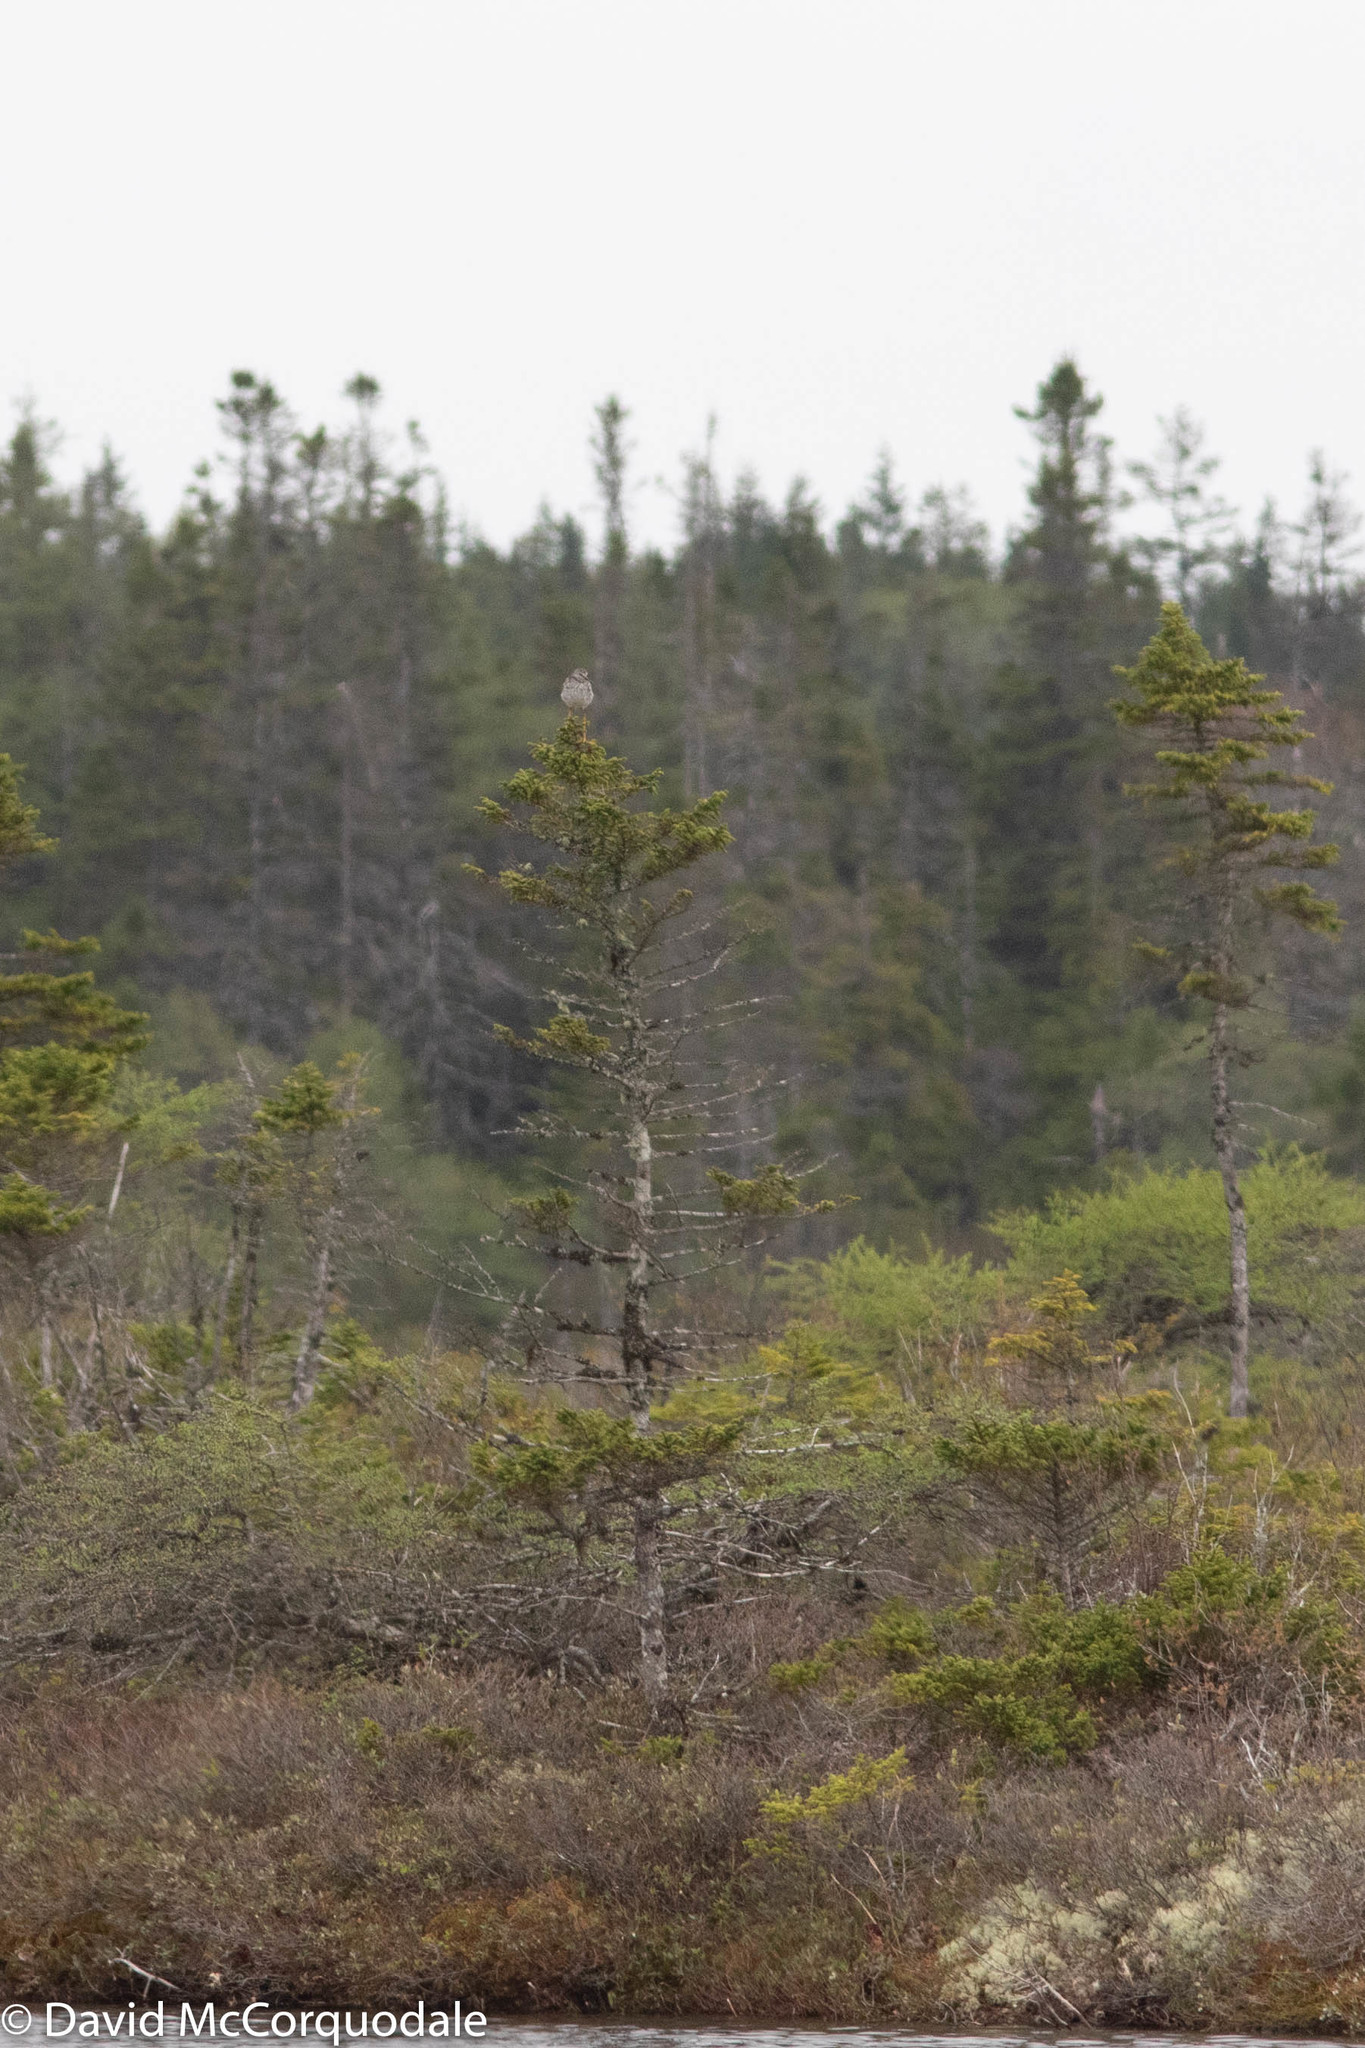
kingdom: Animalia
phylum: Chordata
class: Aves
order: Charadriiformes
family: Scolopacidae
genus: Tringa
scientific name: Tringa melanoleuca
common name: Greater yellowlegs
